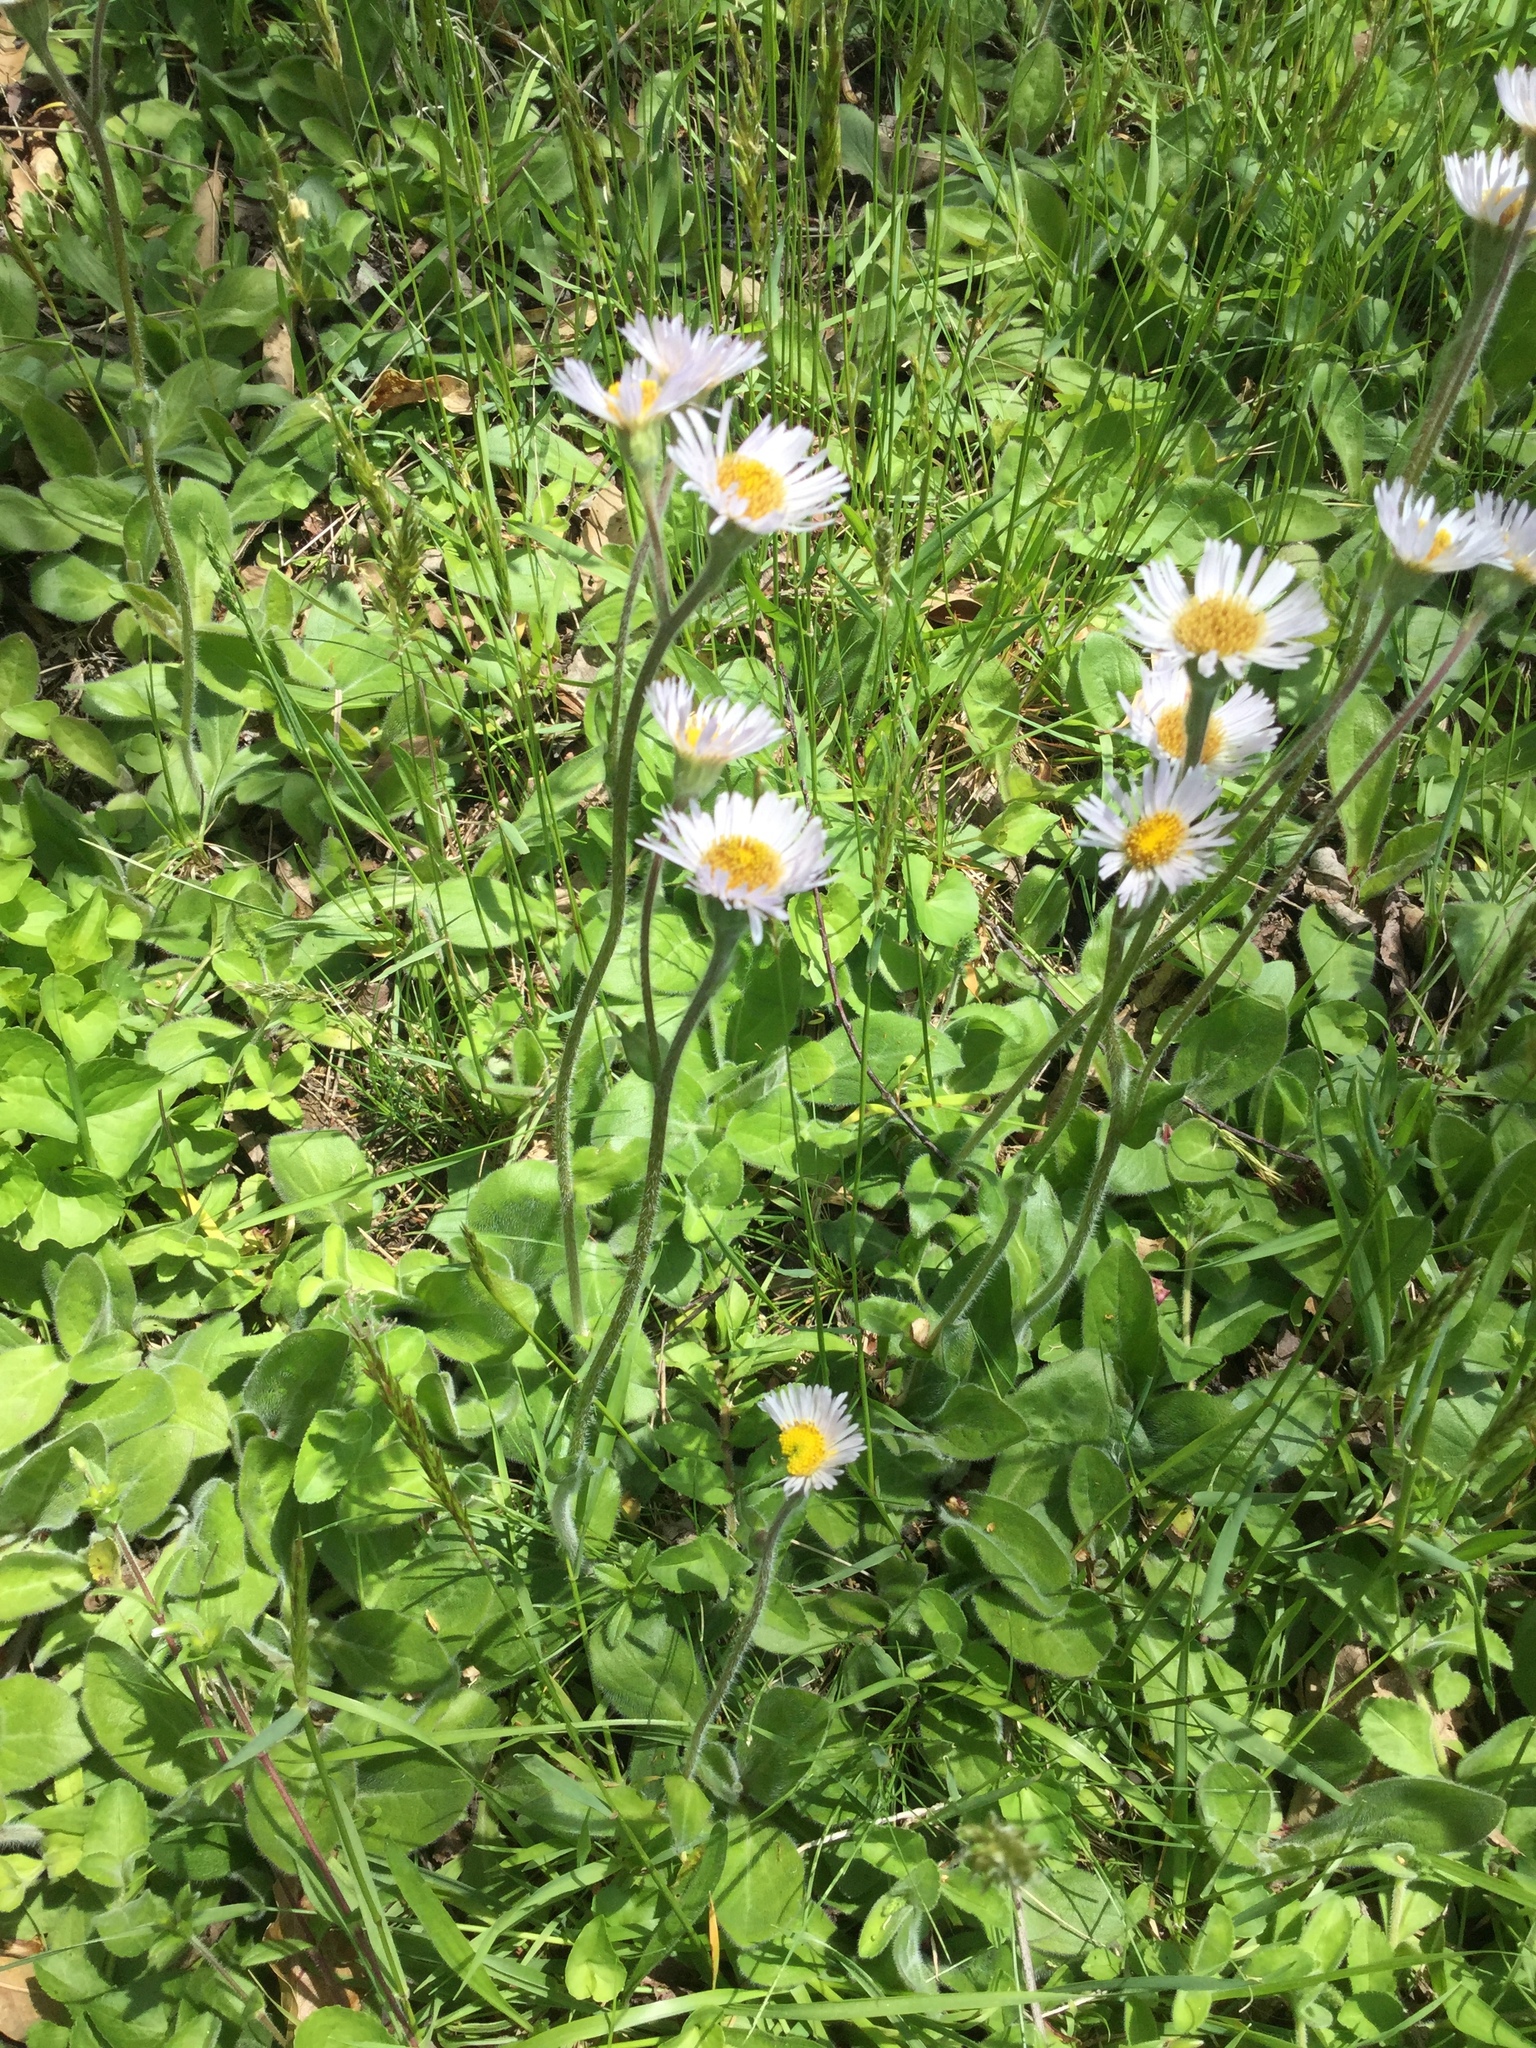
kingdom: Plantae
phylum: Tracheophyta
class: Magnoliopsida
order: Asterales
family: Asteraceae
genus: Erigeron
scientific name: Erigeron pulchellus
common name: Hairy fleabane
